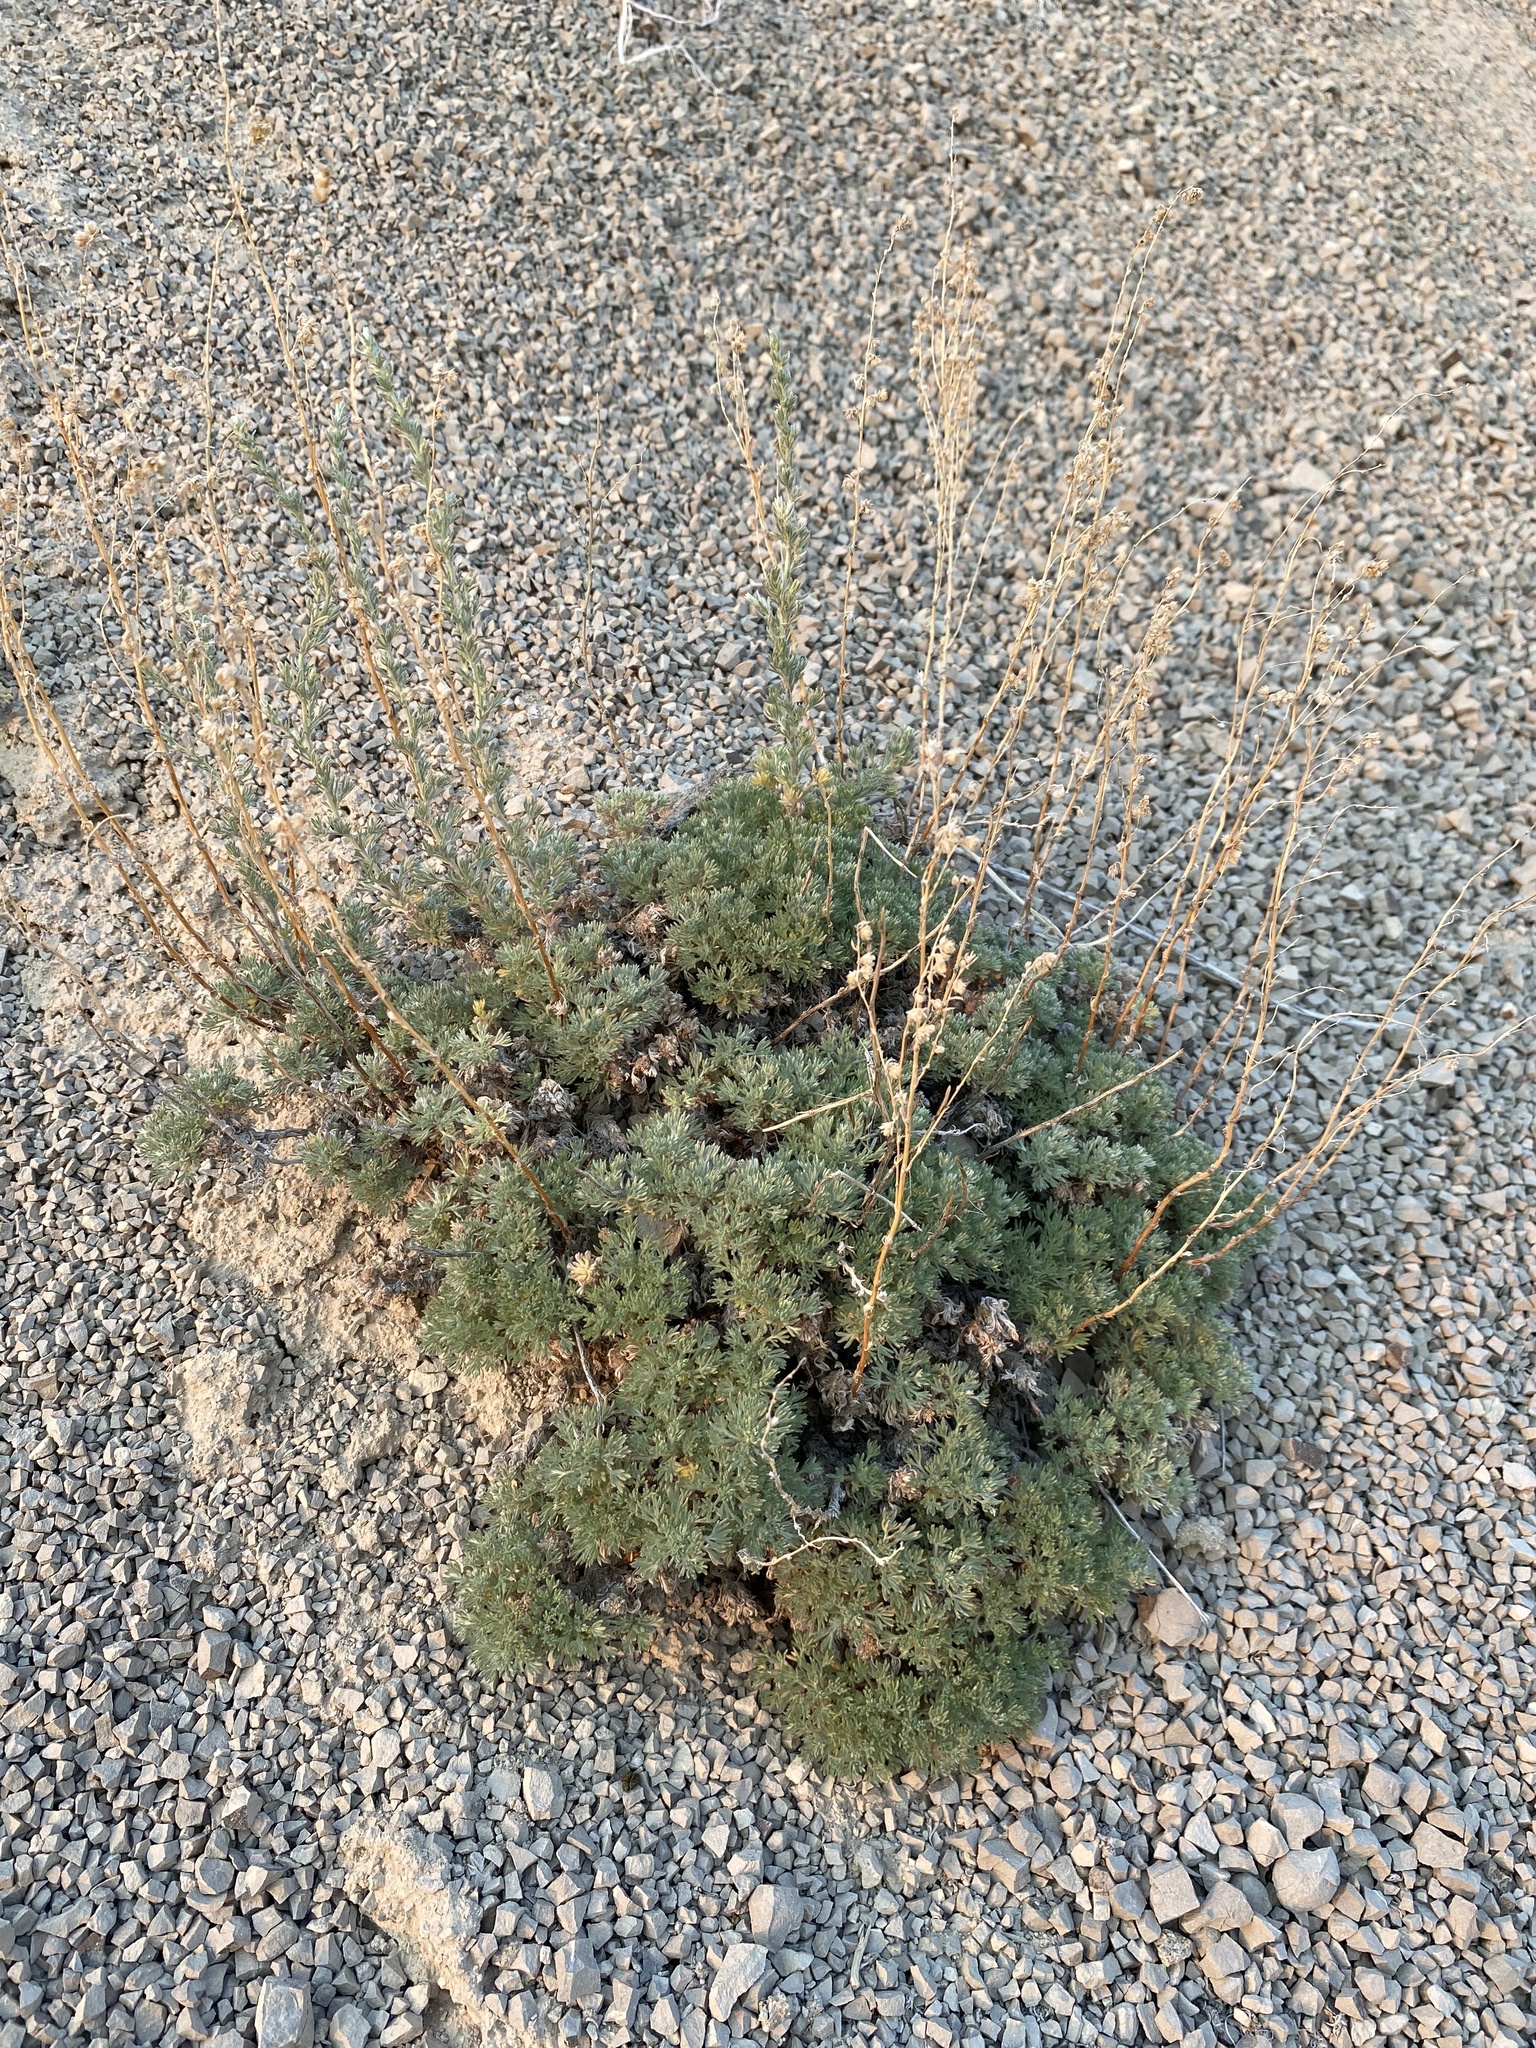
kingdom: Plantae
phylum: Tracheophyta
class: Magnoliopsida
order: Asterales
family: Asteraceae
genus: Artemisia
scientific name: Artemisia frigida
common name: Prairie sagewort
